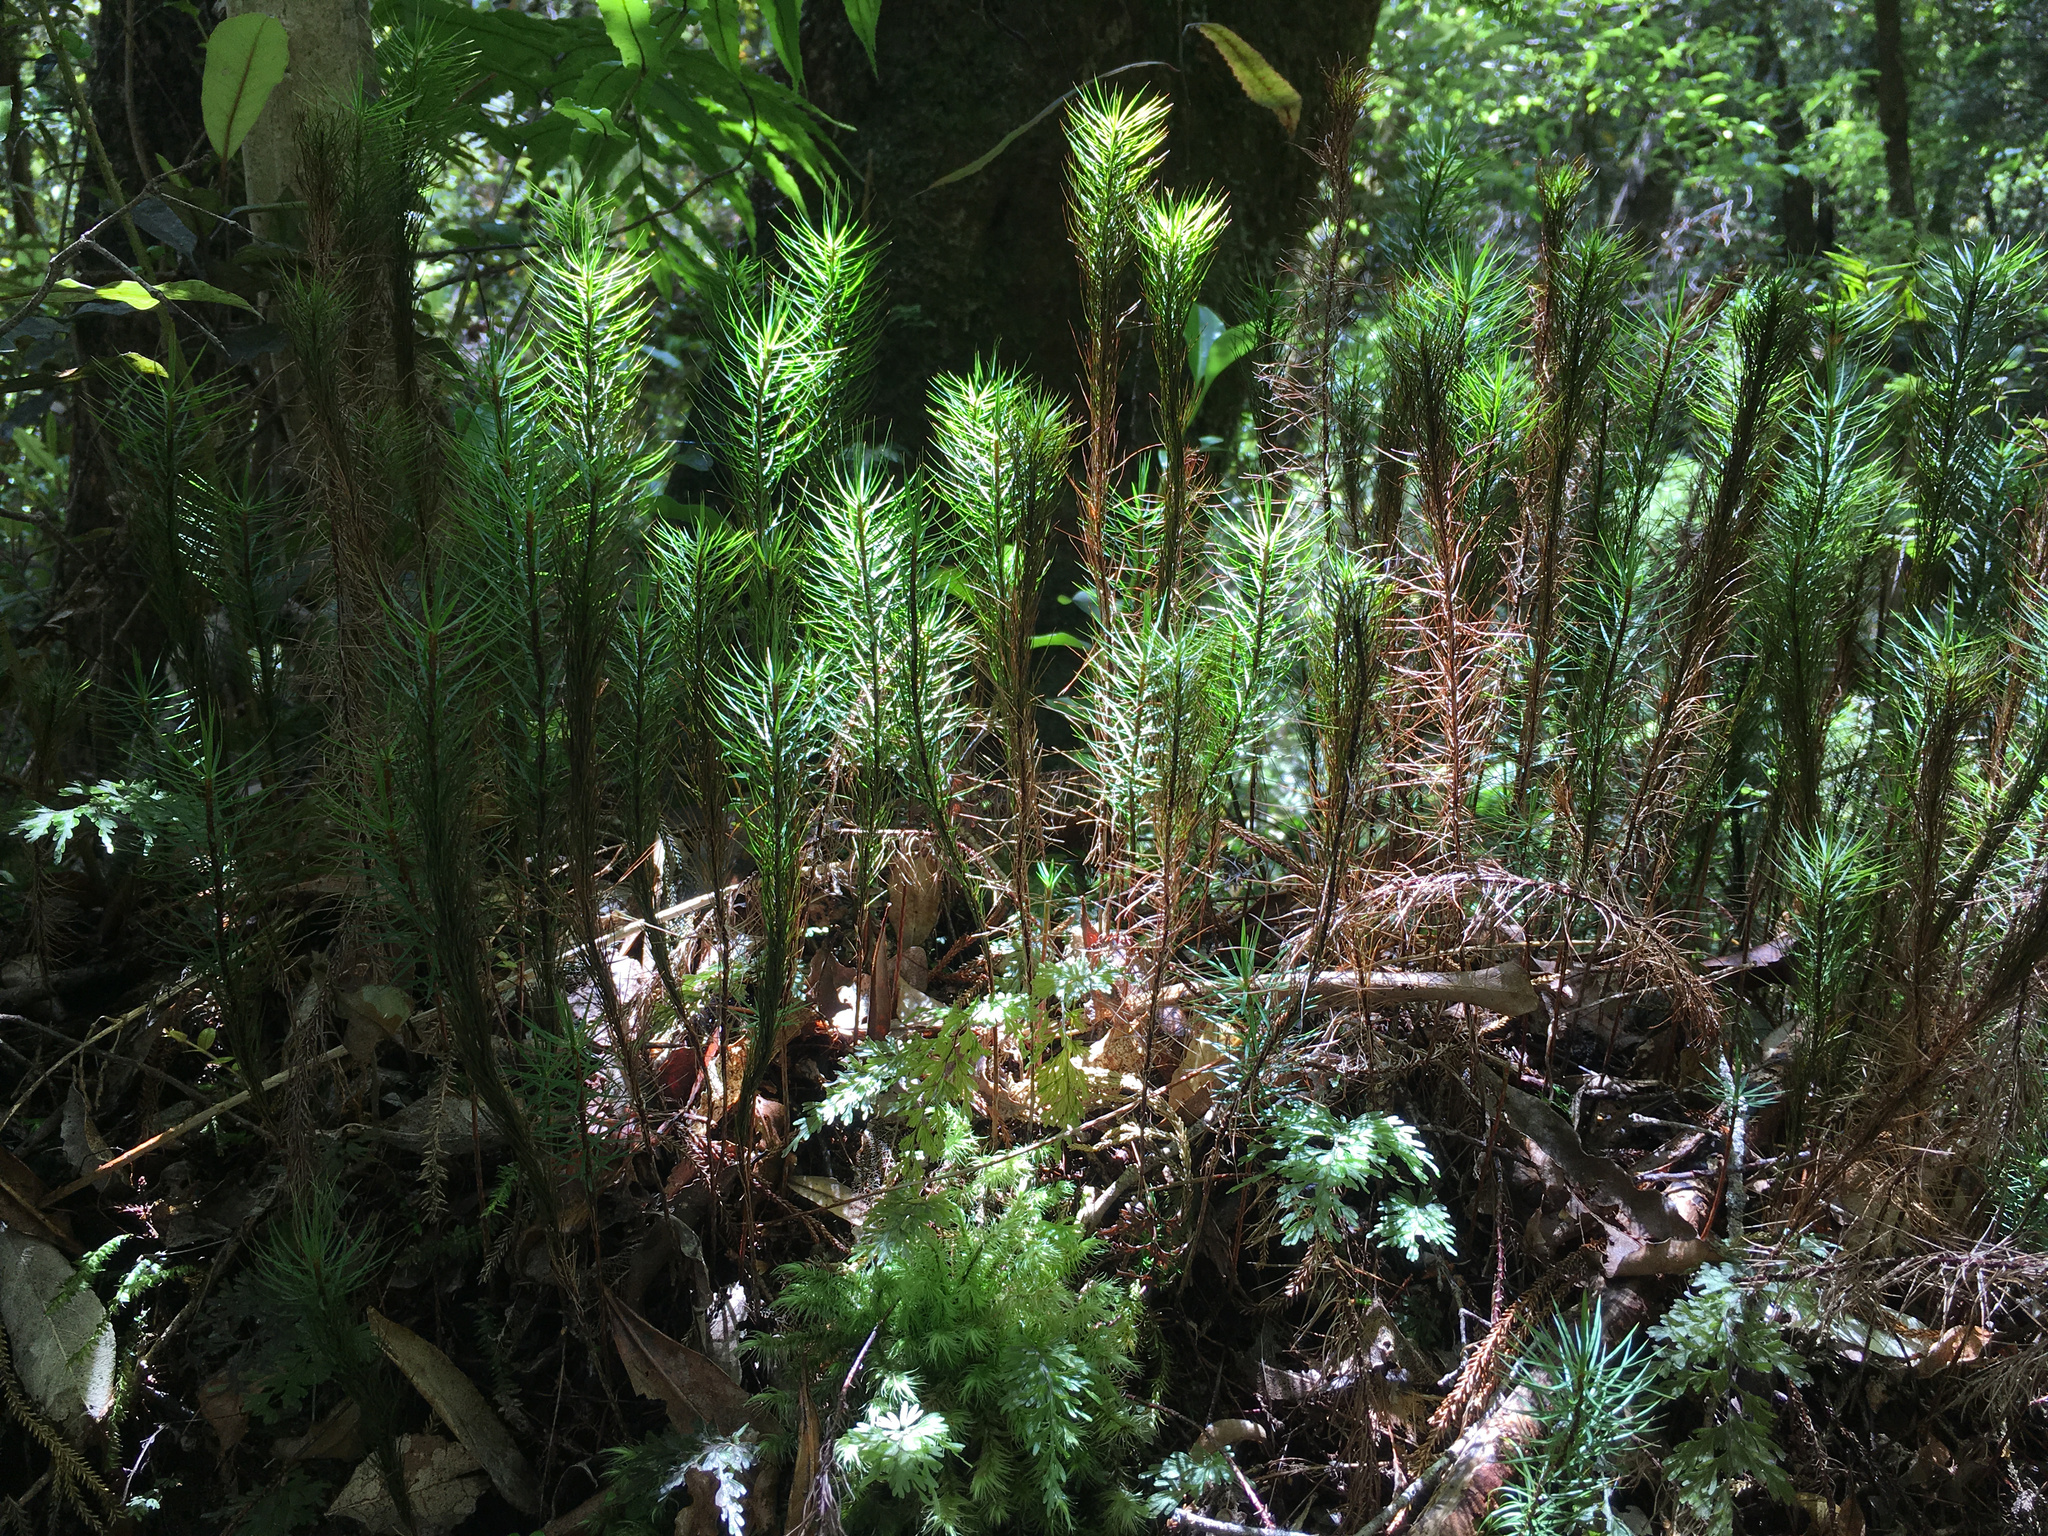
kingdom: Plantae
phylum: Bryophyta
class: Polytrichopsida
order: Polytrichales
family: Polytrichaceae
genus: Dawsonia
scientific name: Dawsonia superba
